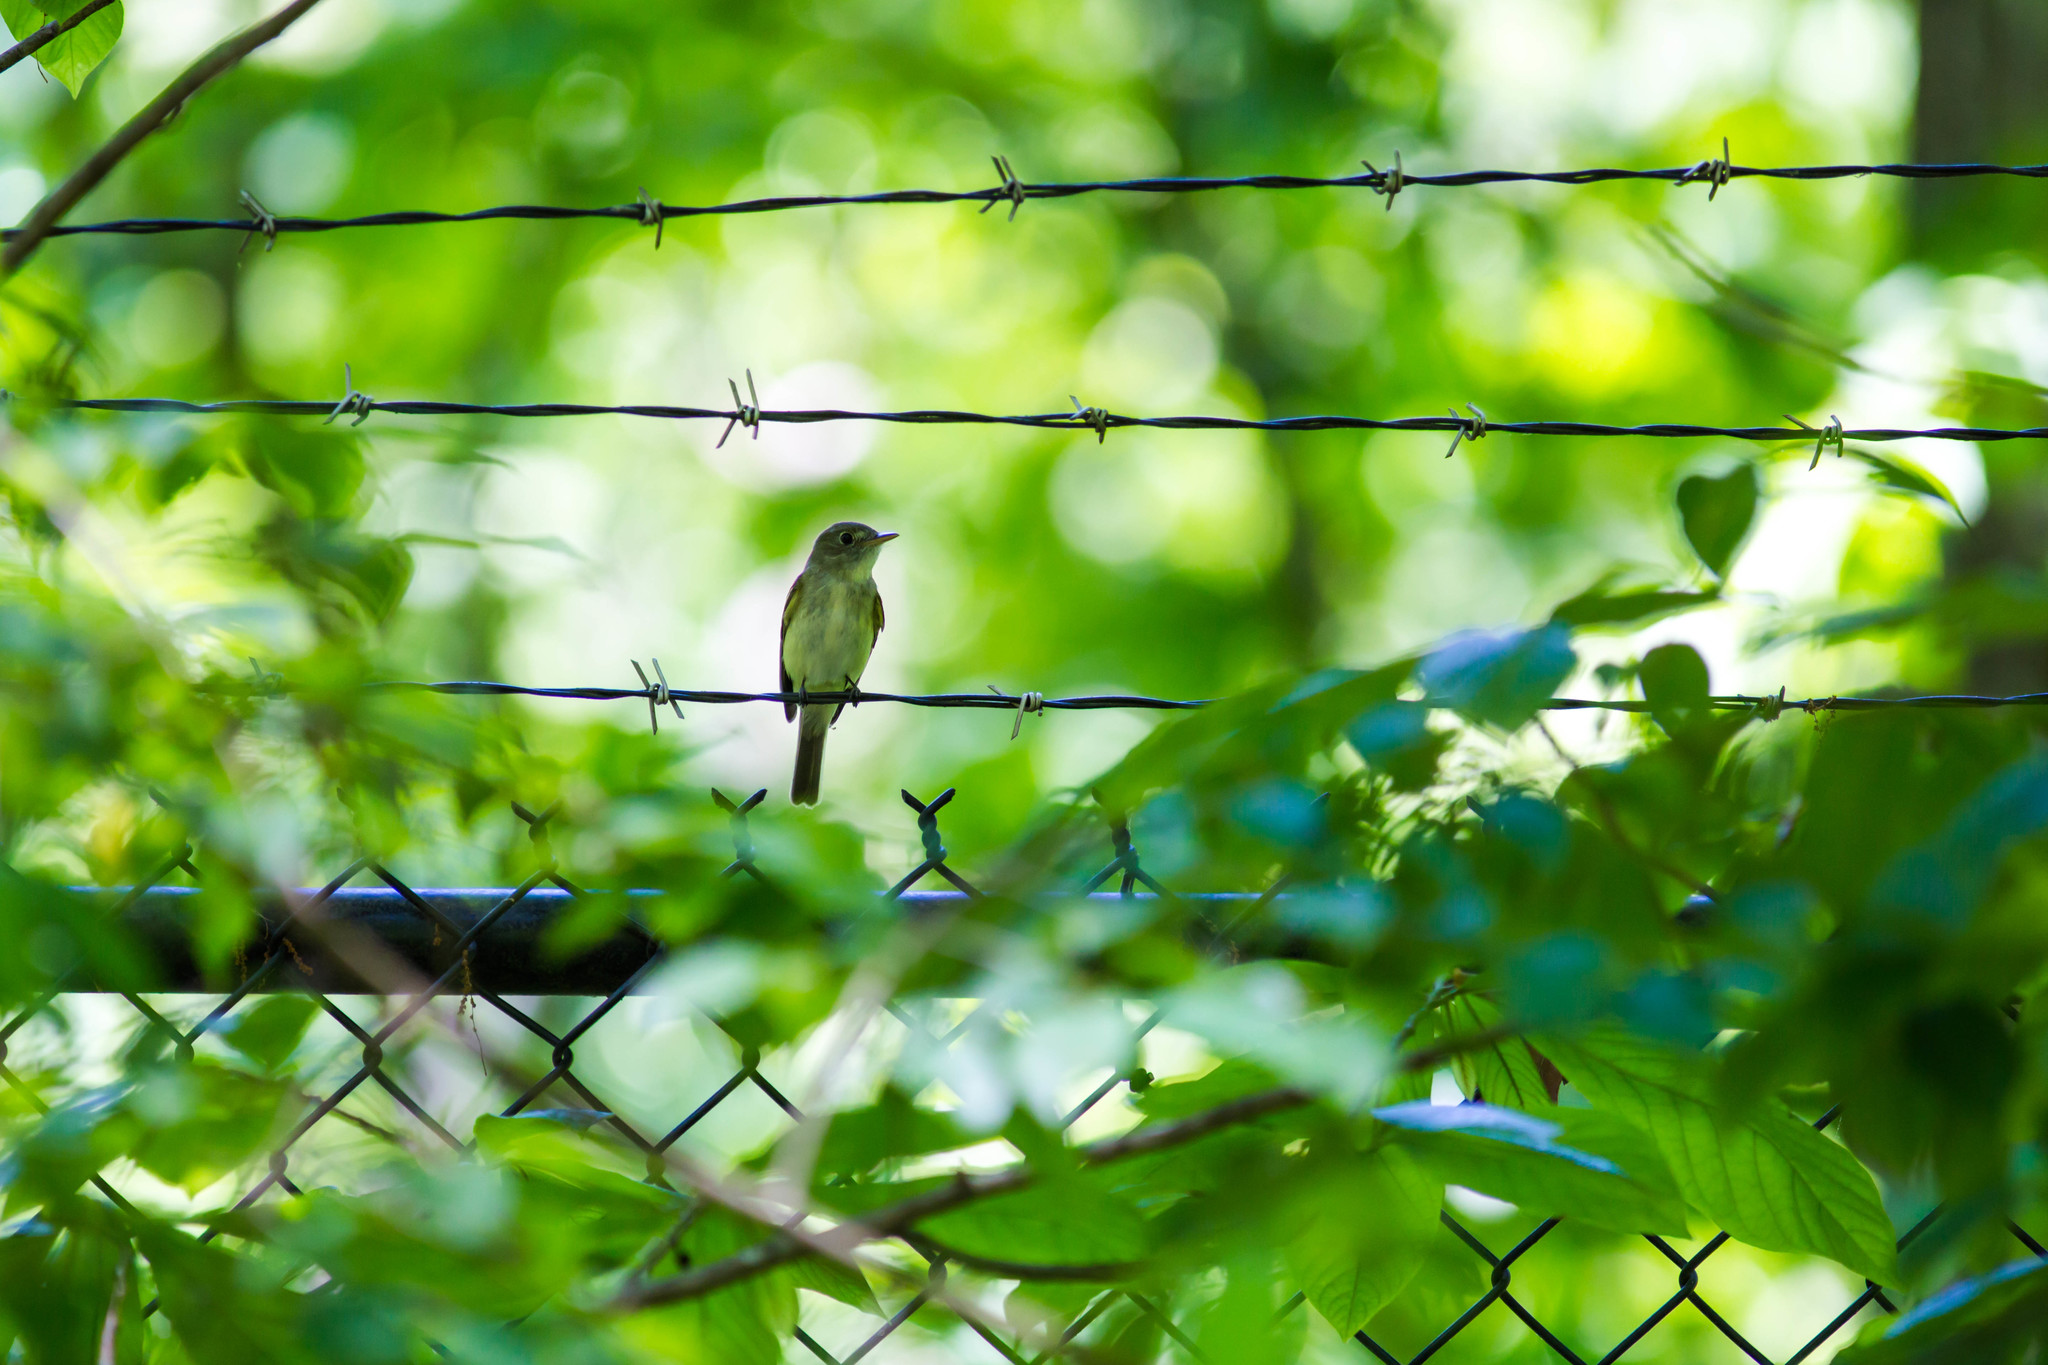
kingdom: Animalia
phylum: Chordata
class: Aves
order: Passeriformes
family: Tyrannidae
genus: Contopus
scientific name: Contopus virens
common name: Eastern wood-pewee
